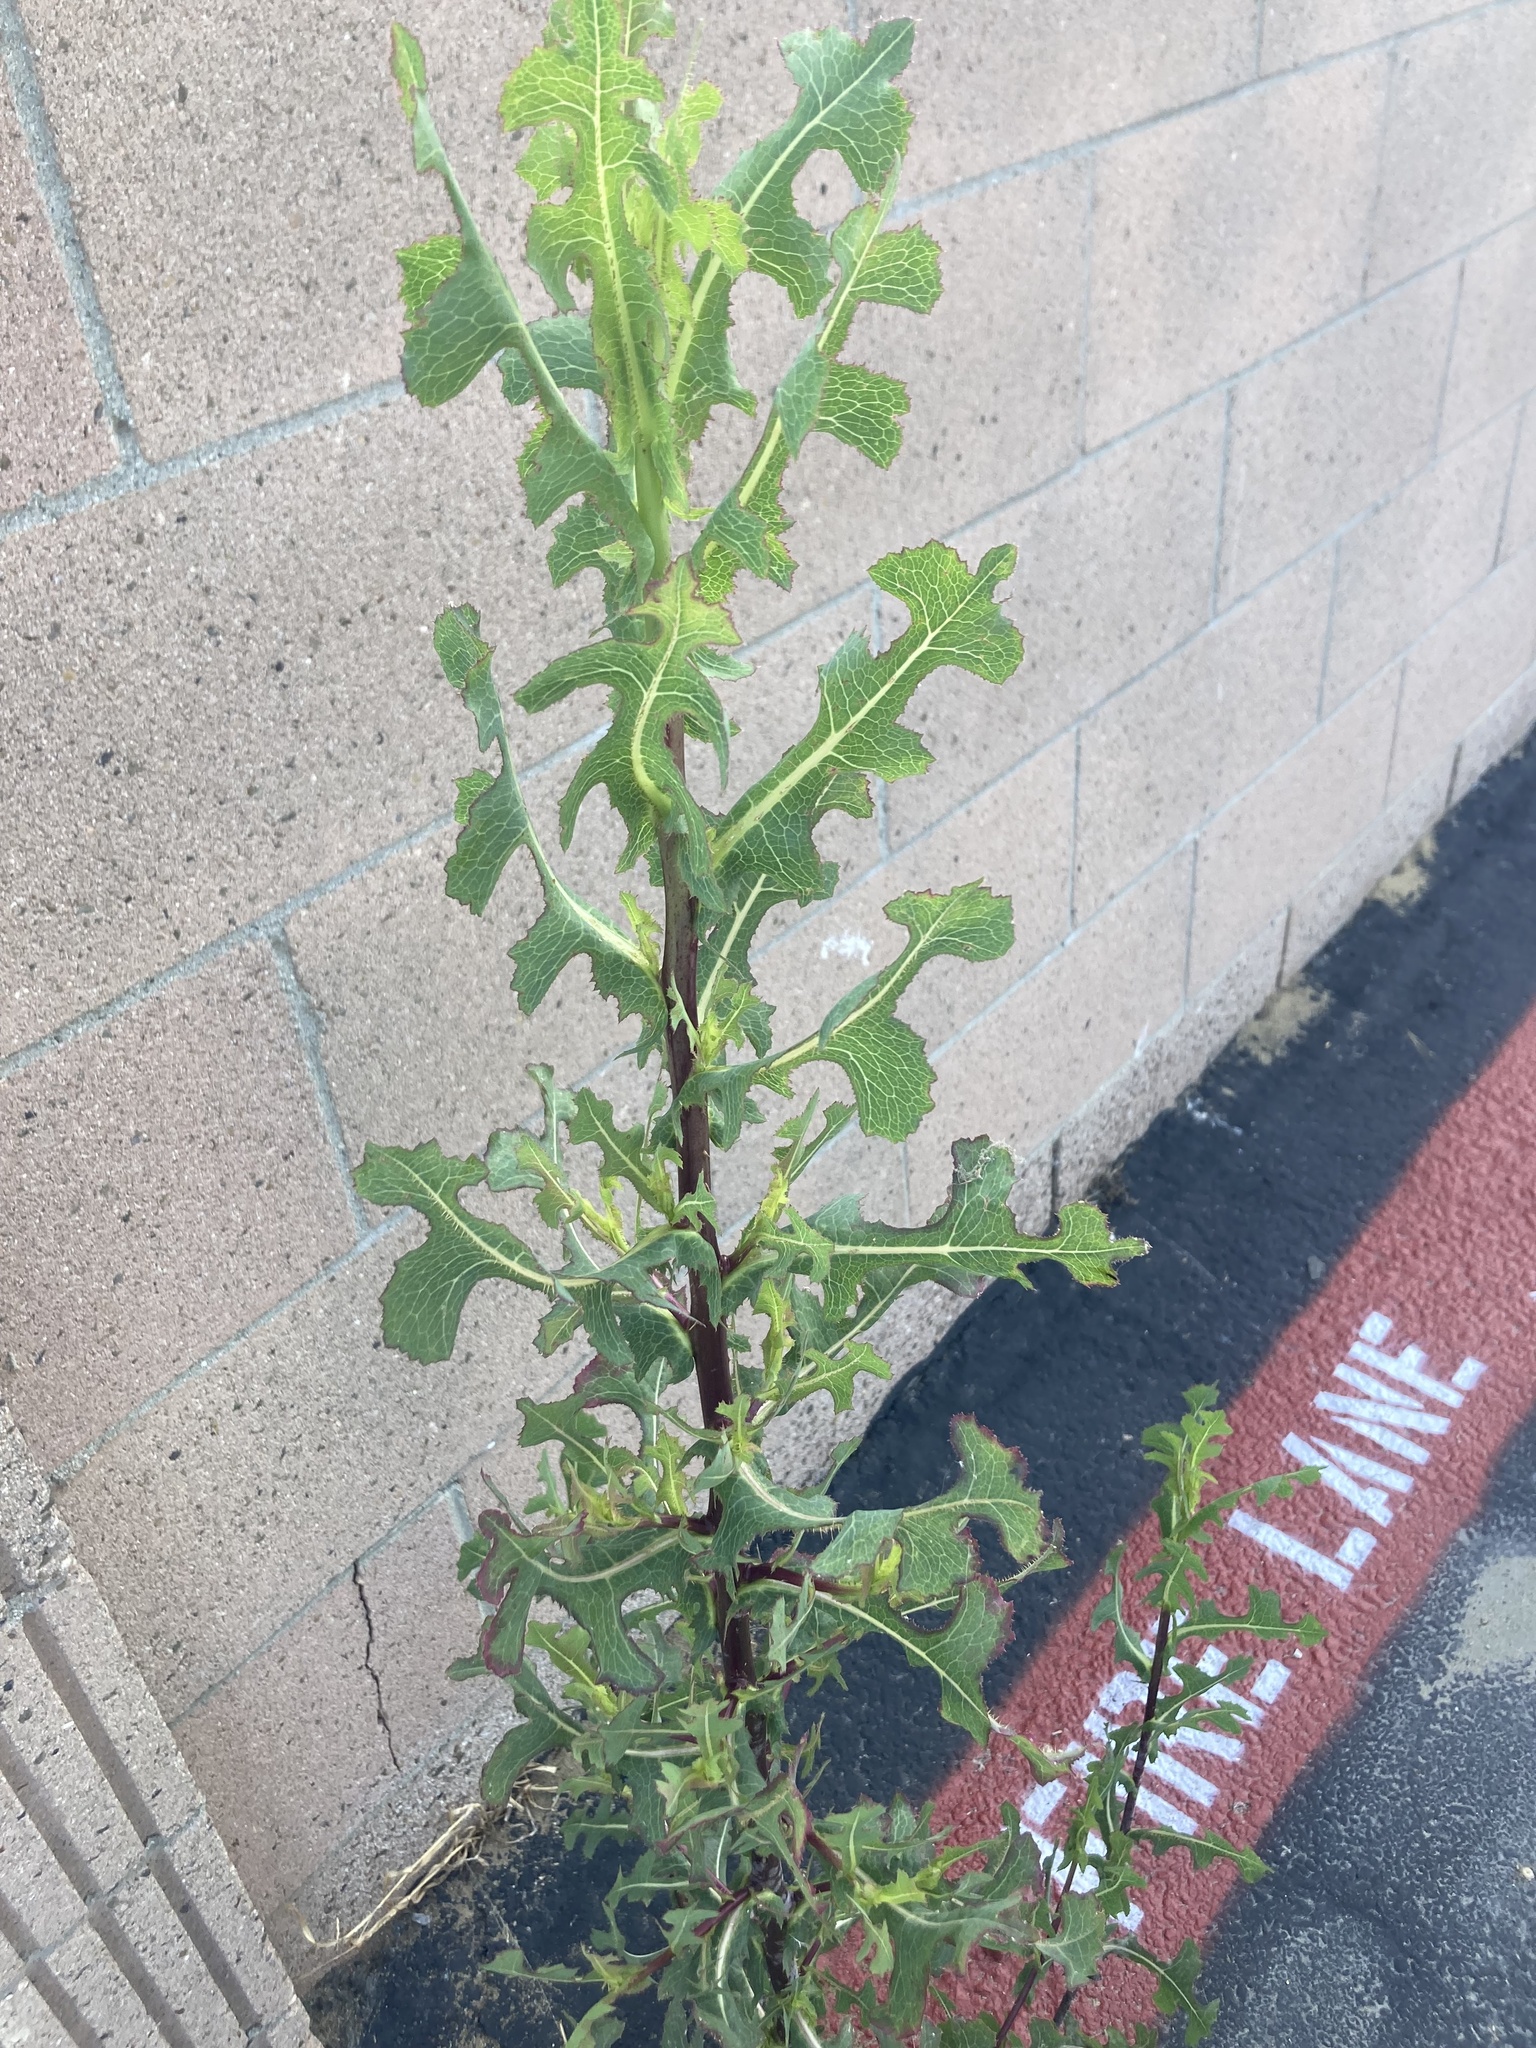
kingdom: Plantae
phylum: Tracheophyta
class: Magnoliopsida
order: Asterales
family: Asteraceae
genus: Lactuca
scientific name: Lactuca serriola
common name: Prickly lettuce
